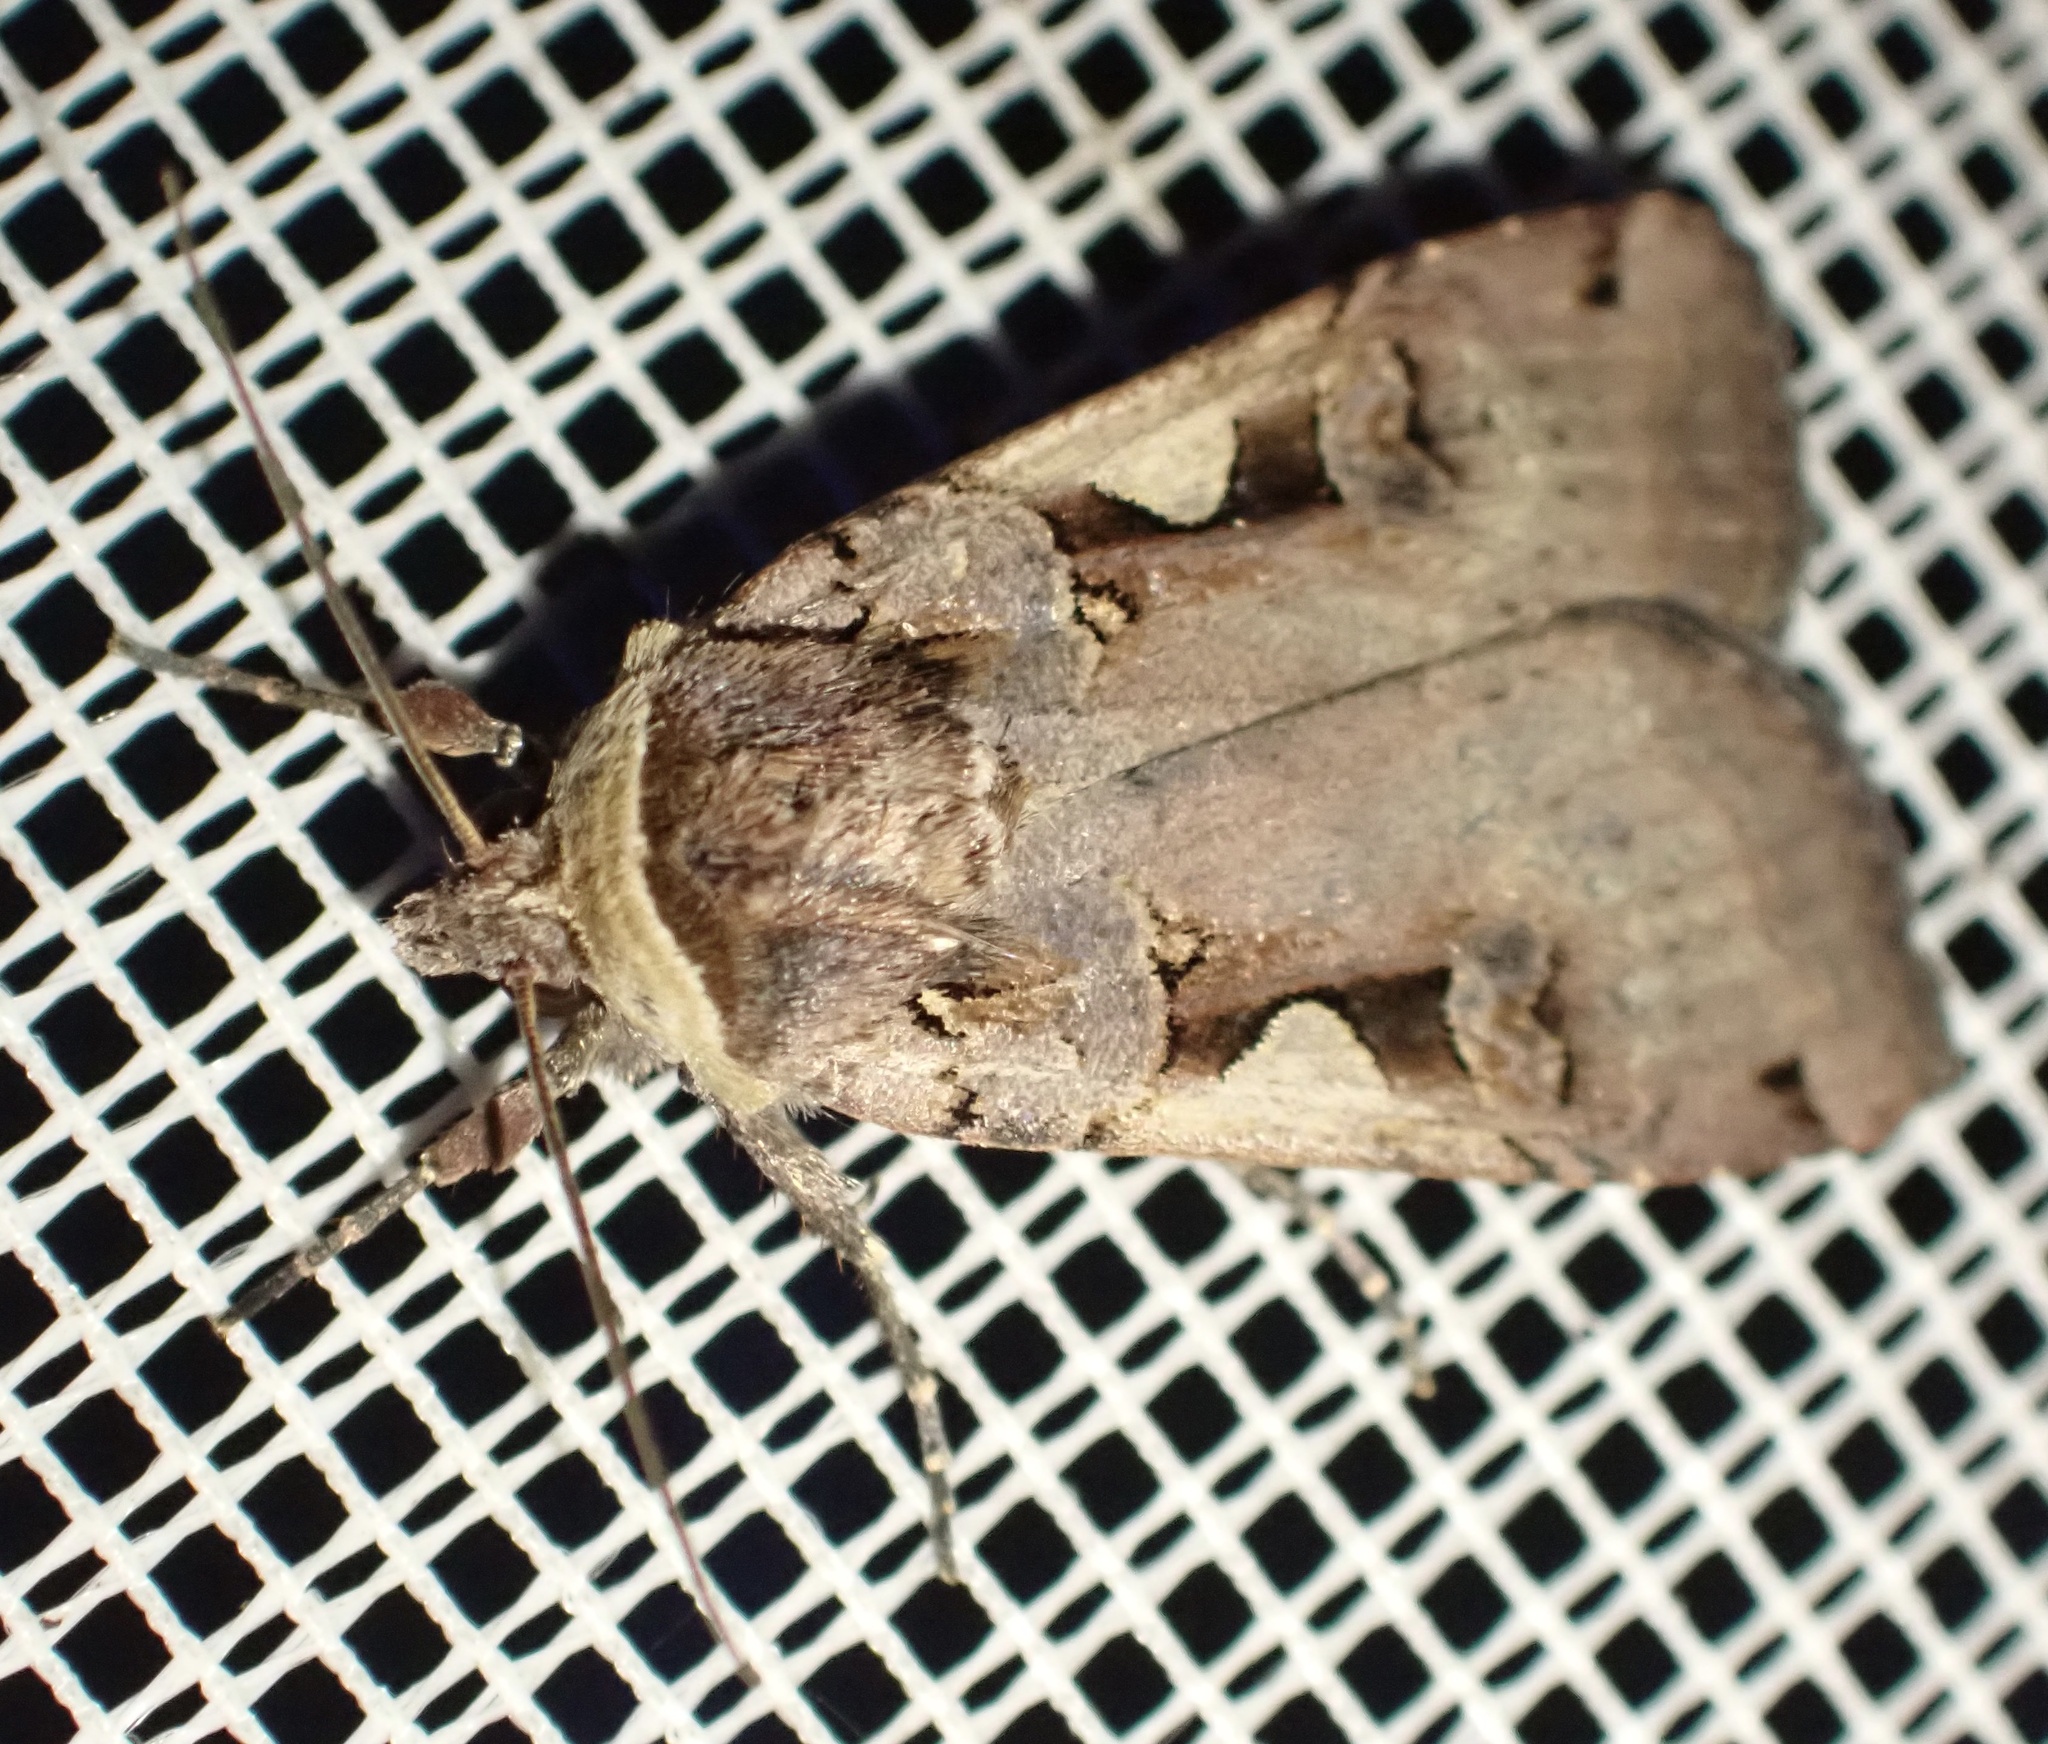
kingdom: Animalia
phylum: Arthropoda
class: Insecta
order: Lepidoptera
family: Noctuidae
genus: Xestia
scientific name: Xestia c-nigrum
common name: Setaceous hebrew character
